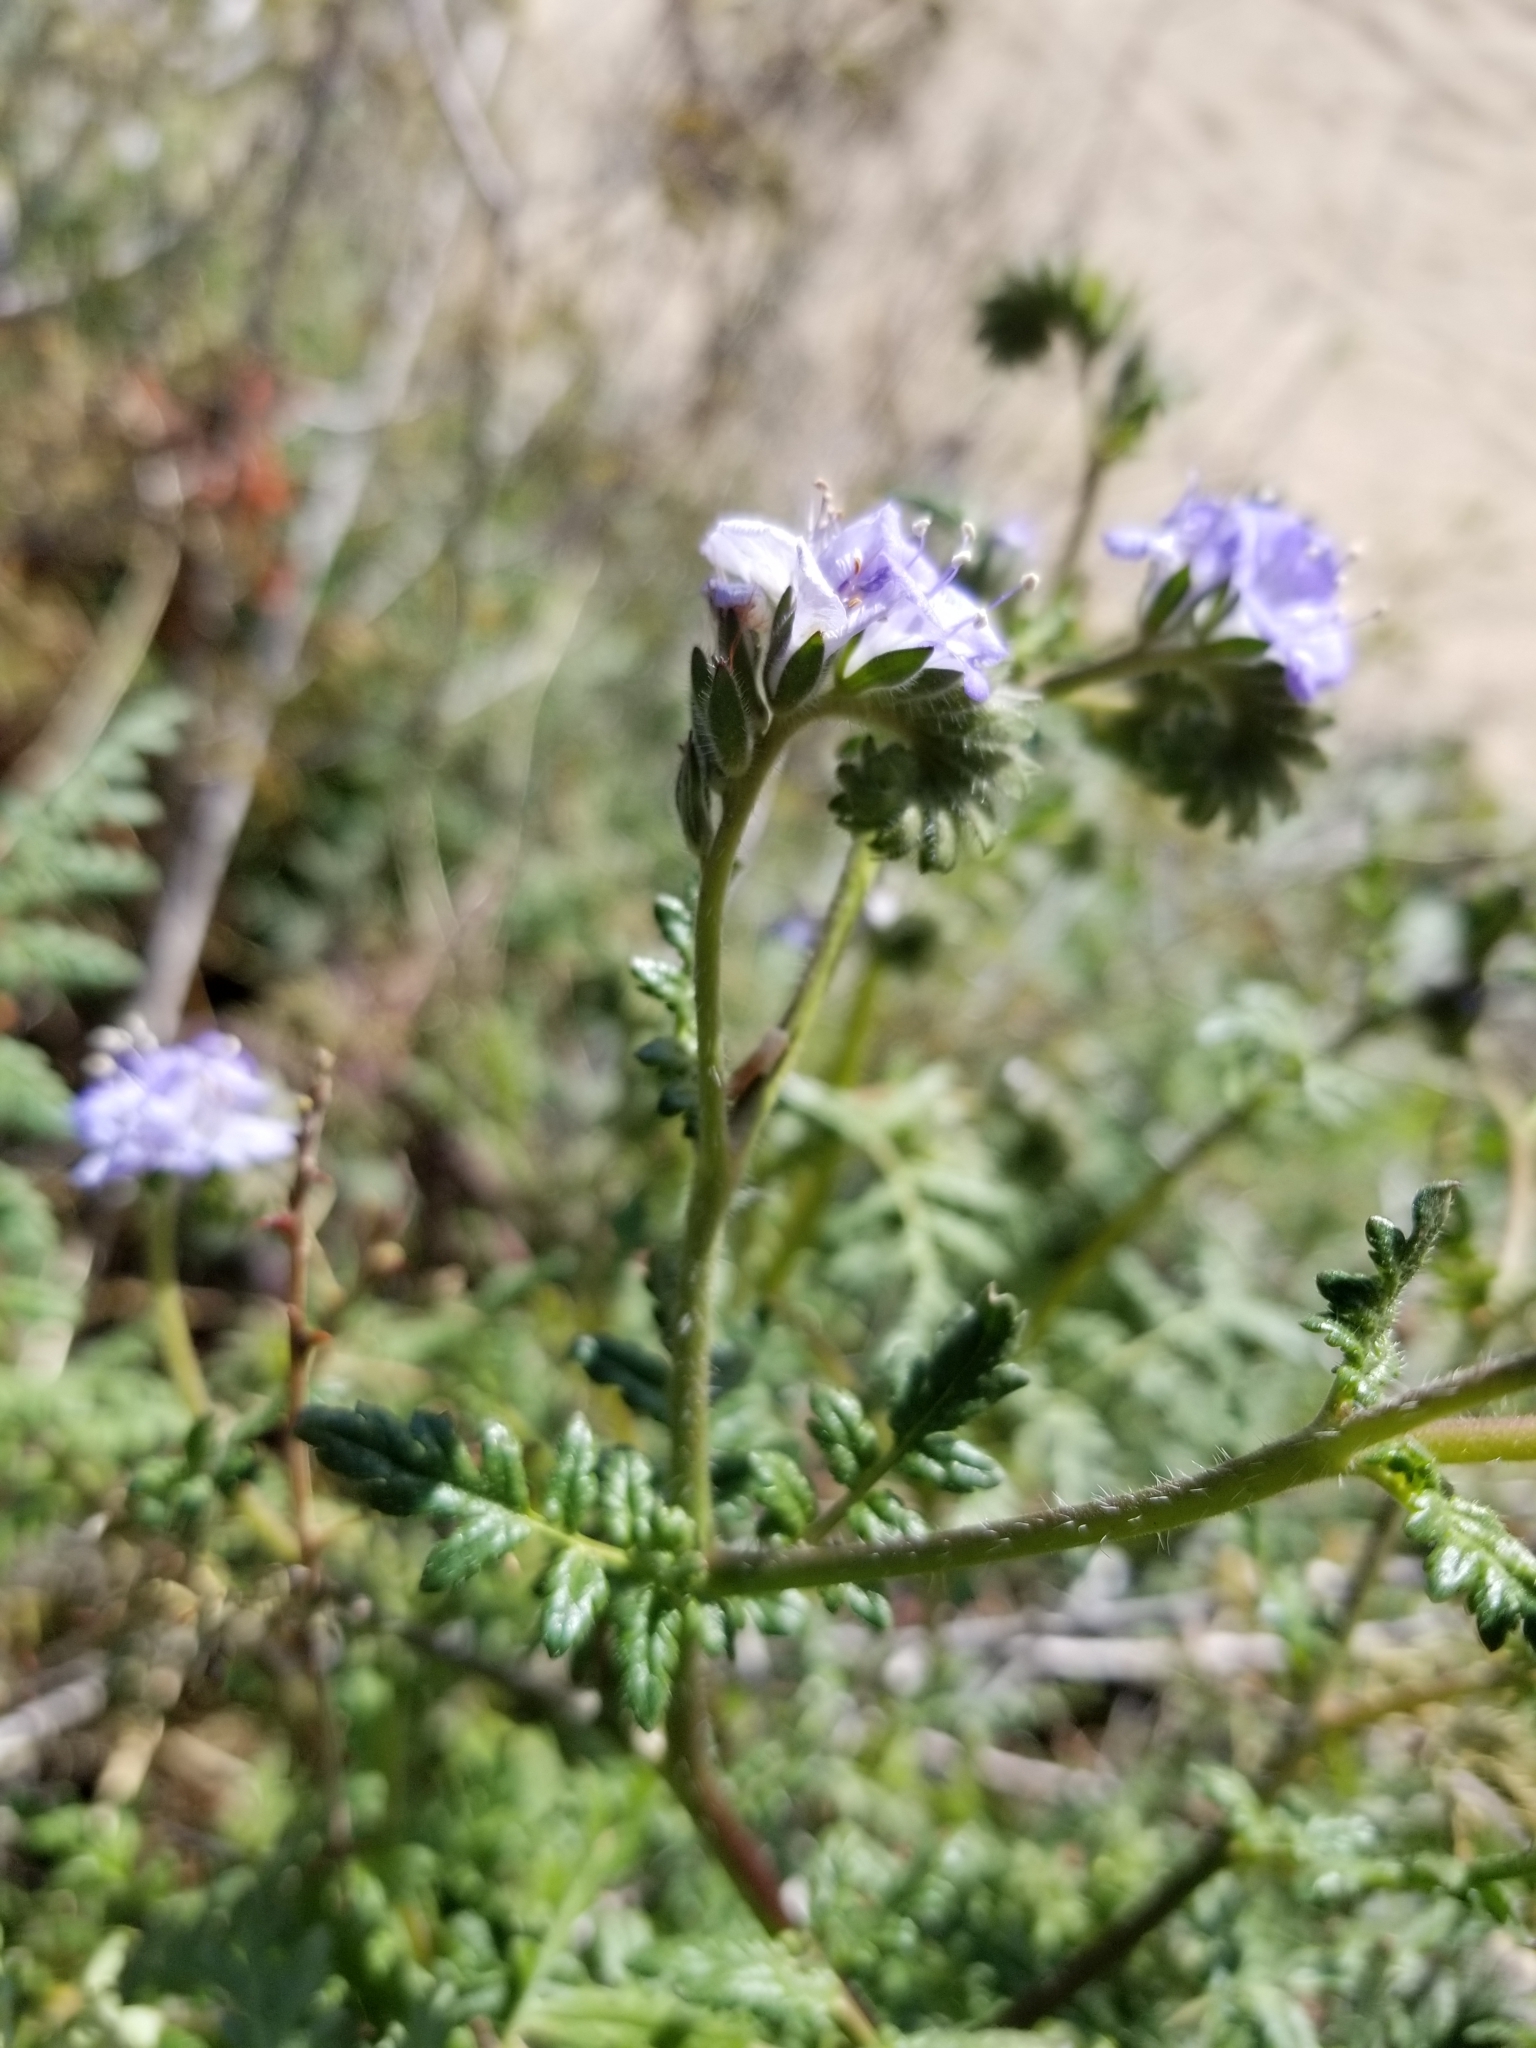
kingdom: Plantae
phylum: Tracheophyta
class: Magnoliopsida
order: Boraginales
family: Hydrophyllaceae
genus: Phacelia
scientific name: Phacelia distans
